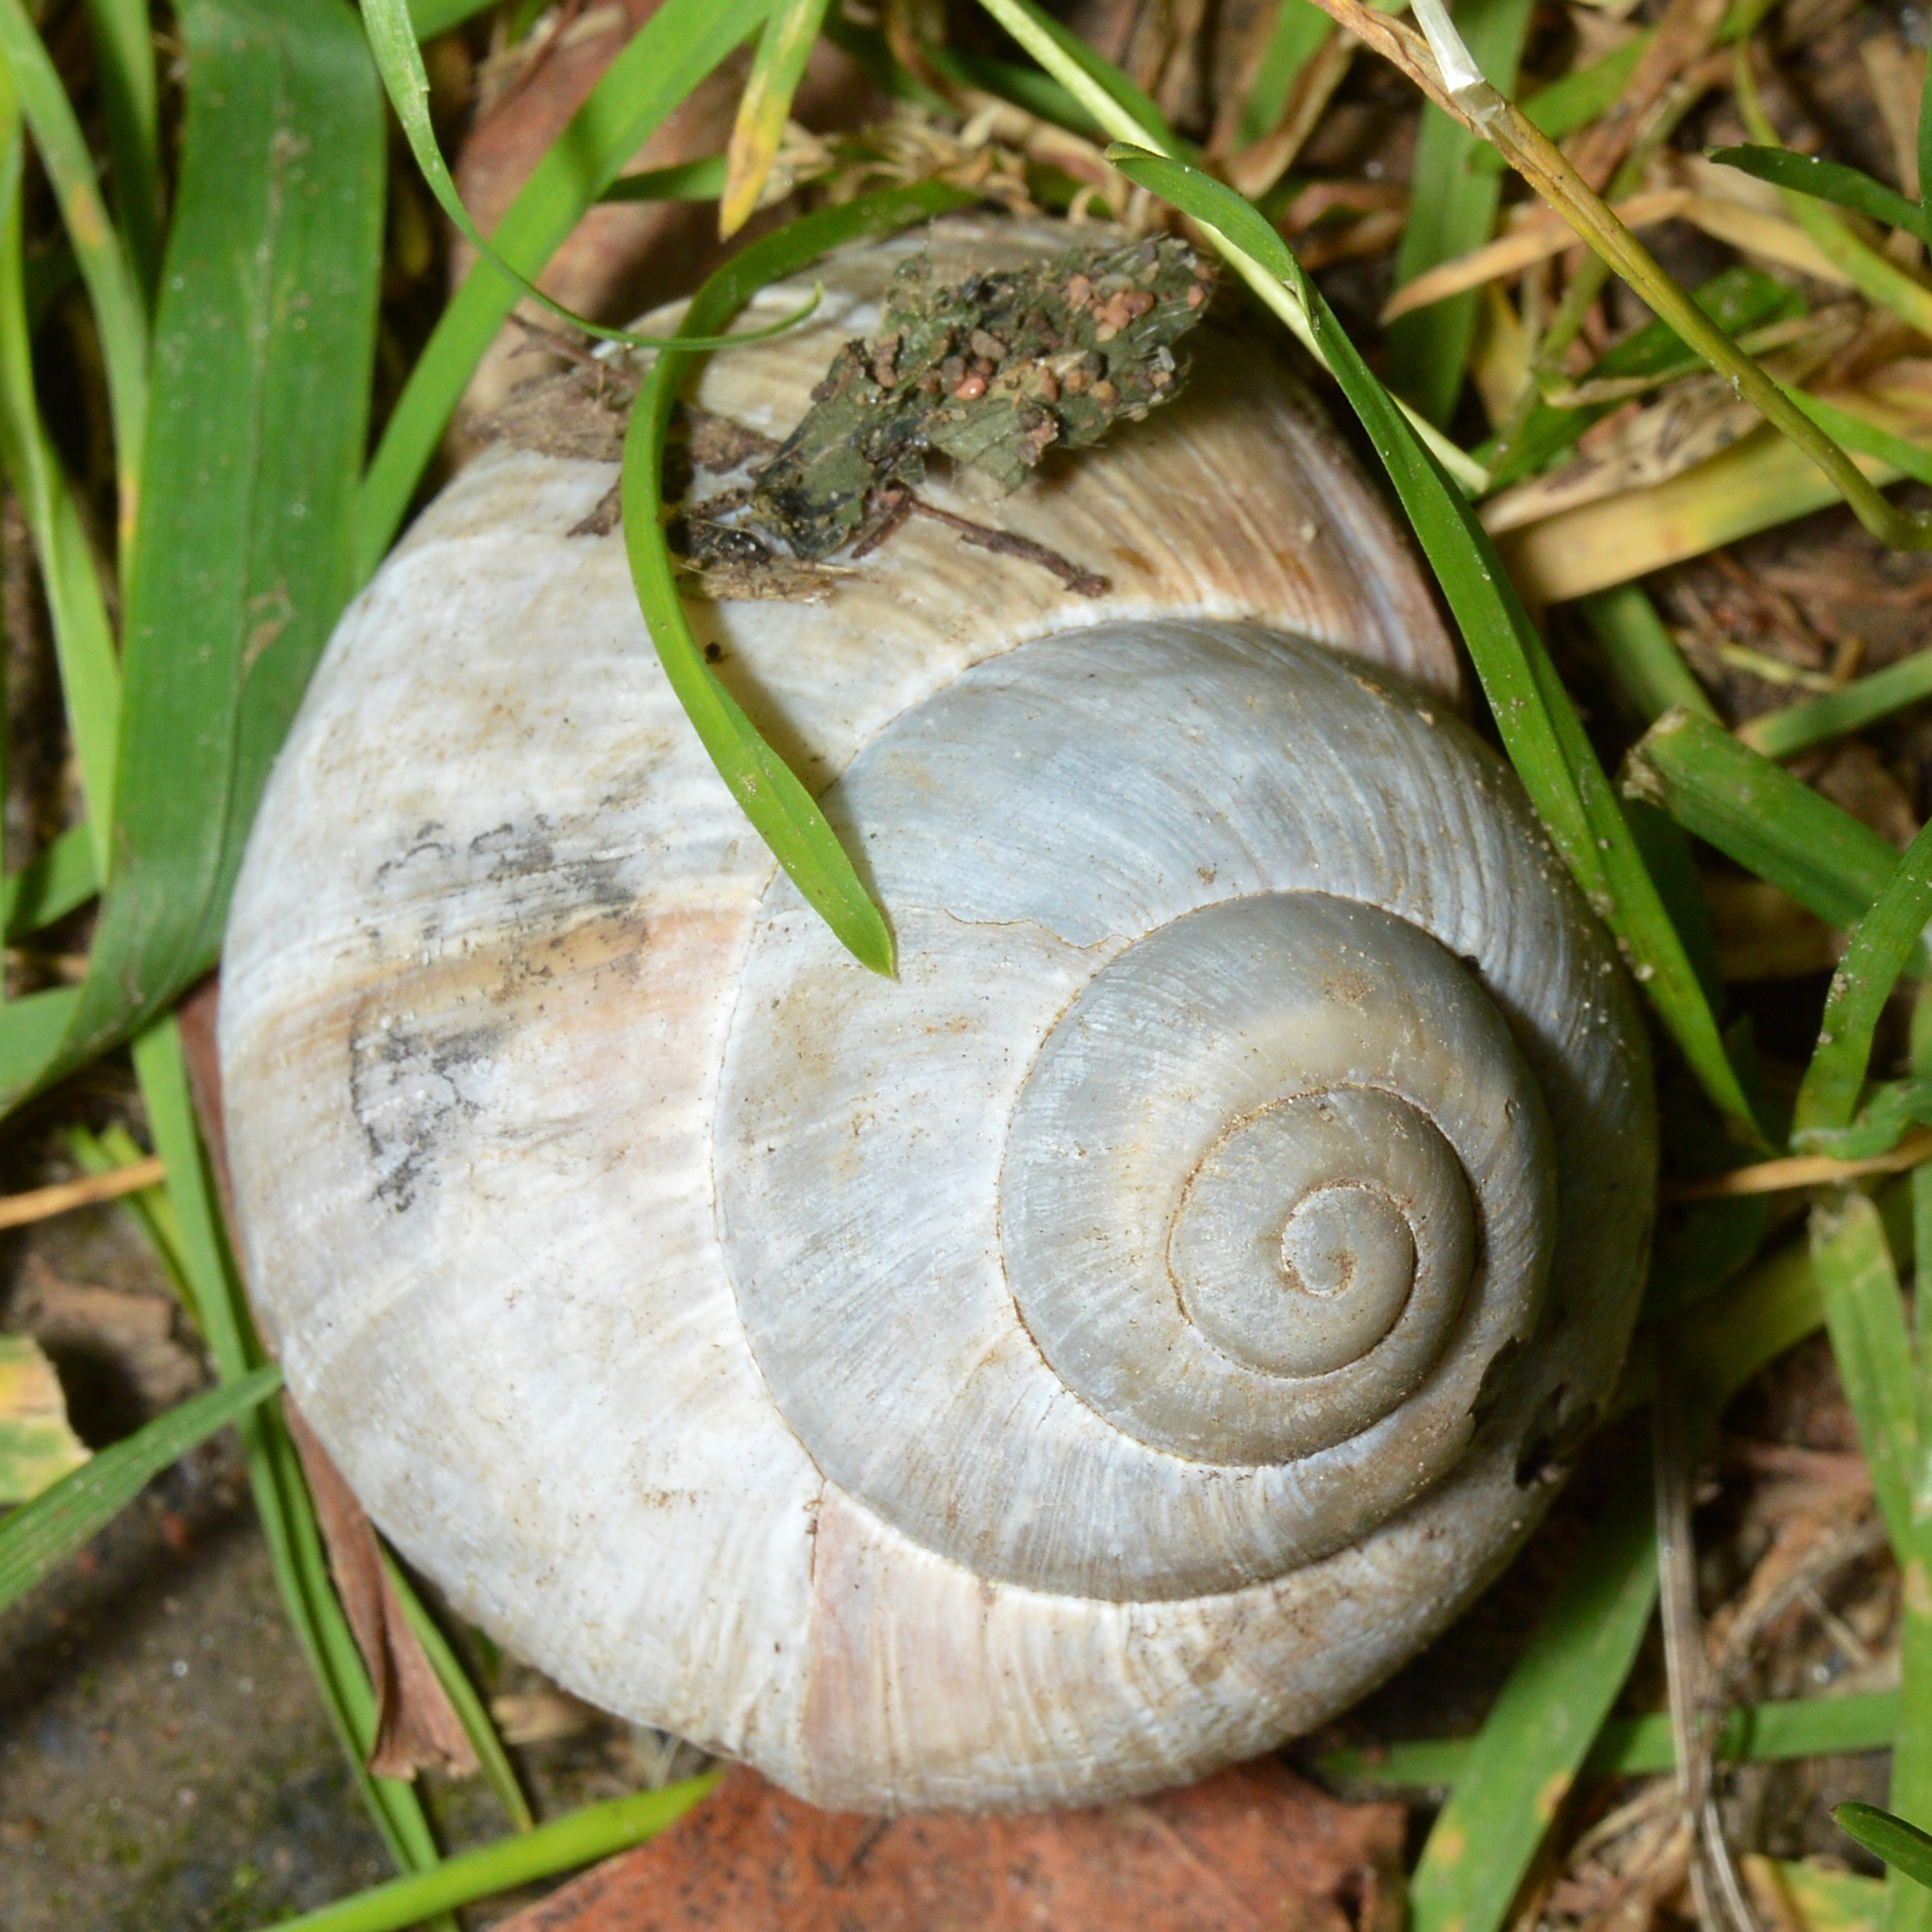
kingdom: Animalia
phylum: Mollusca
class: Gastropoda
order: Stylommatophora
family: Helicidae
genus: Helix
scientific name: Helix pomatia
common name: Roman snail
